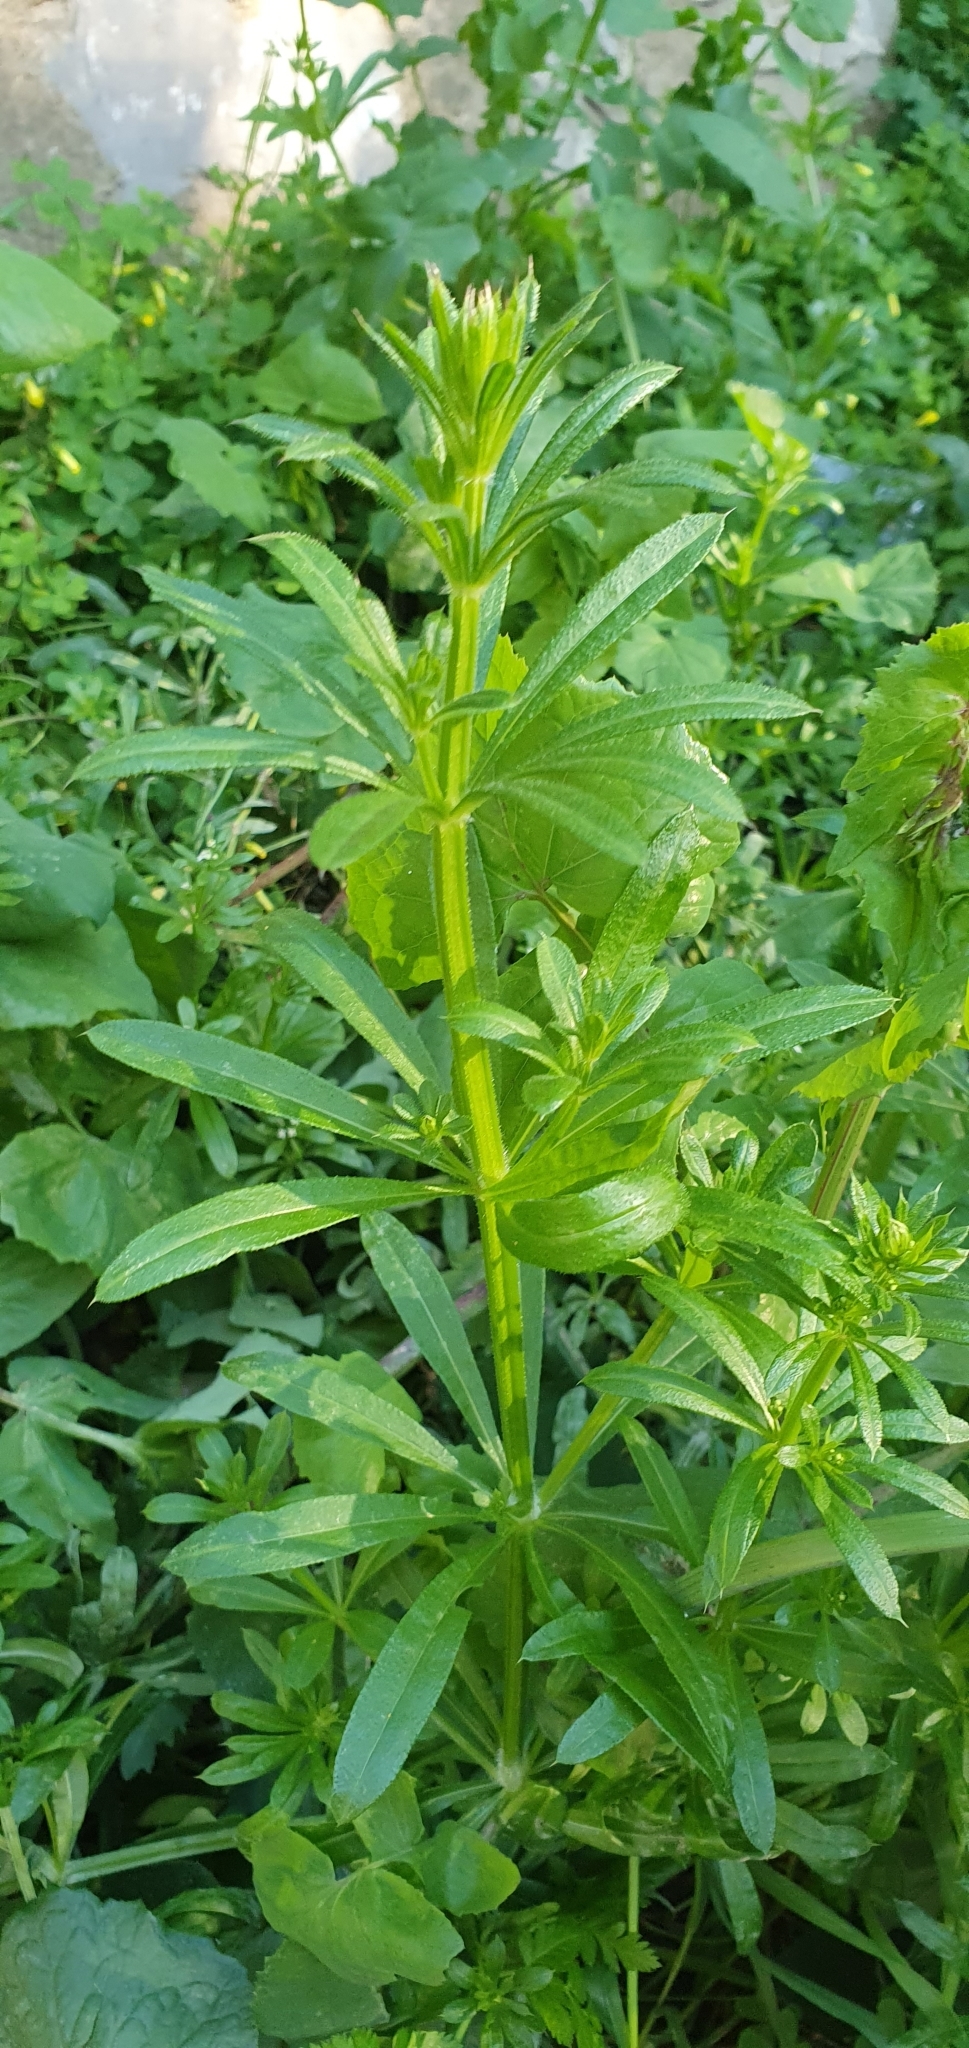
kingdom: Plantae
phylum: Tracheophyta
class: Magnoliopsida
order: Gentianales
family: Rubiaceae
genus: Galium
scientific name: Galium aparine
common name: Cleavers
